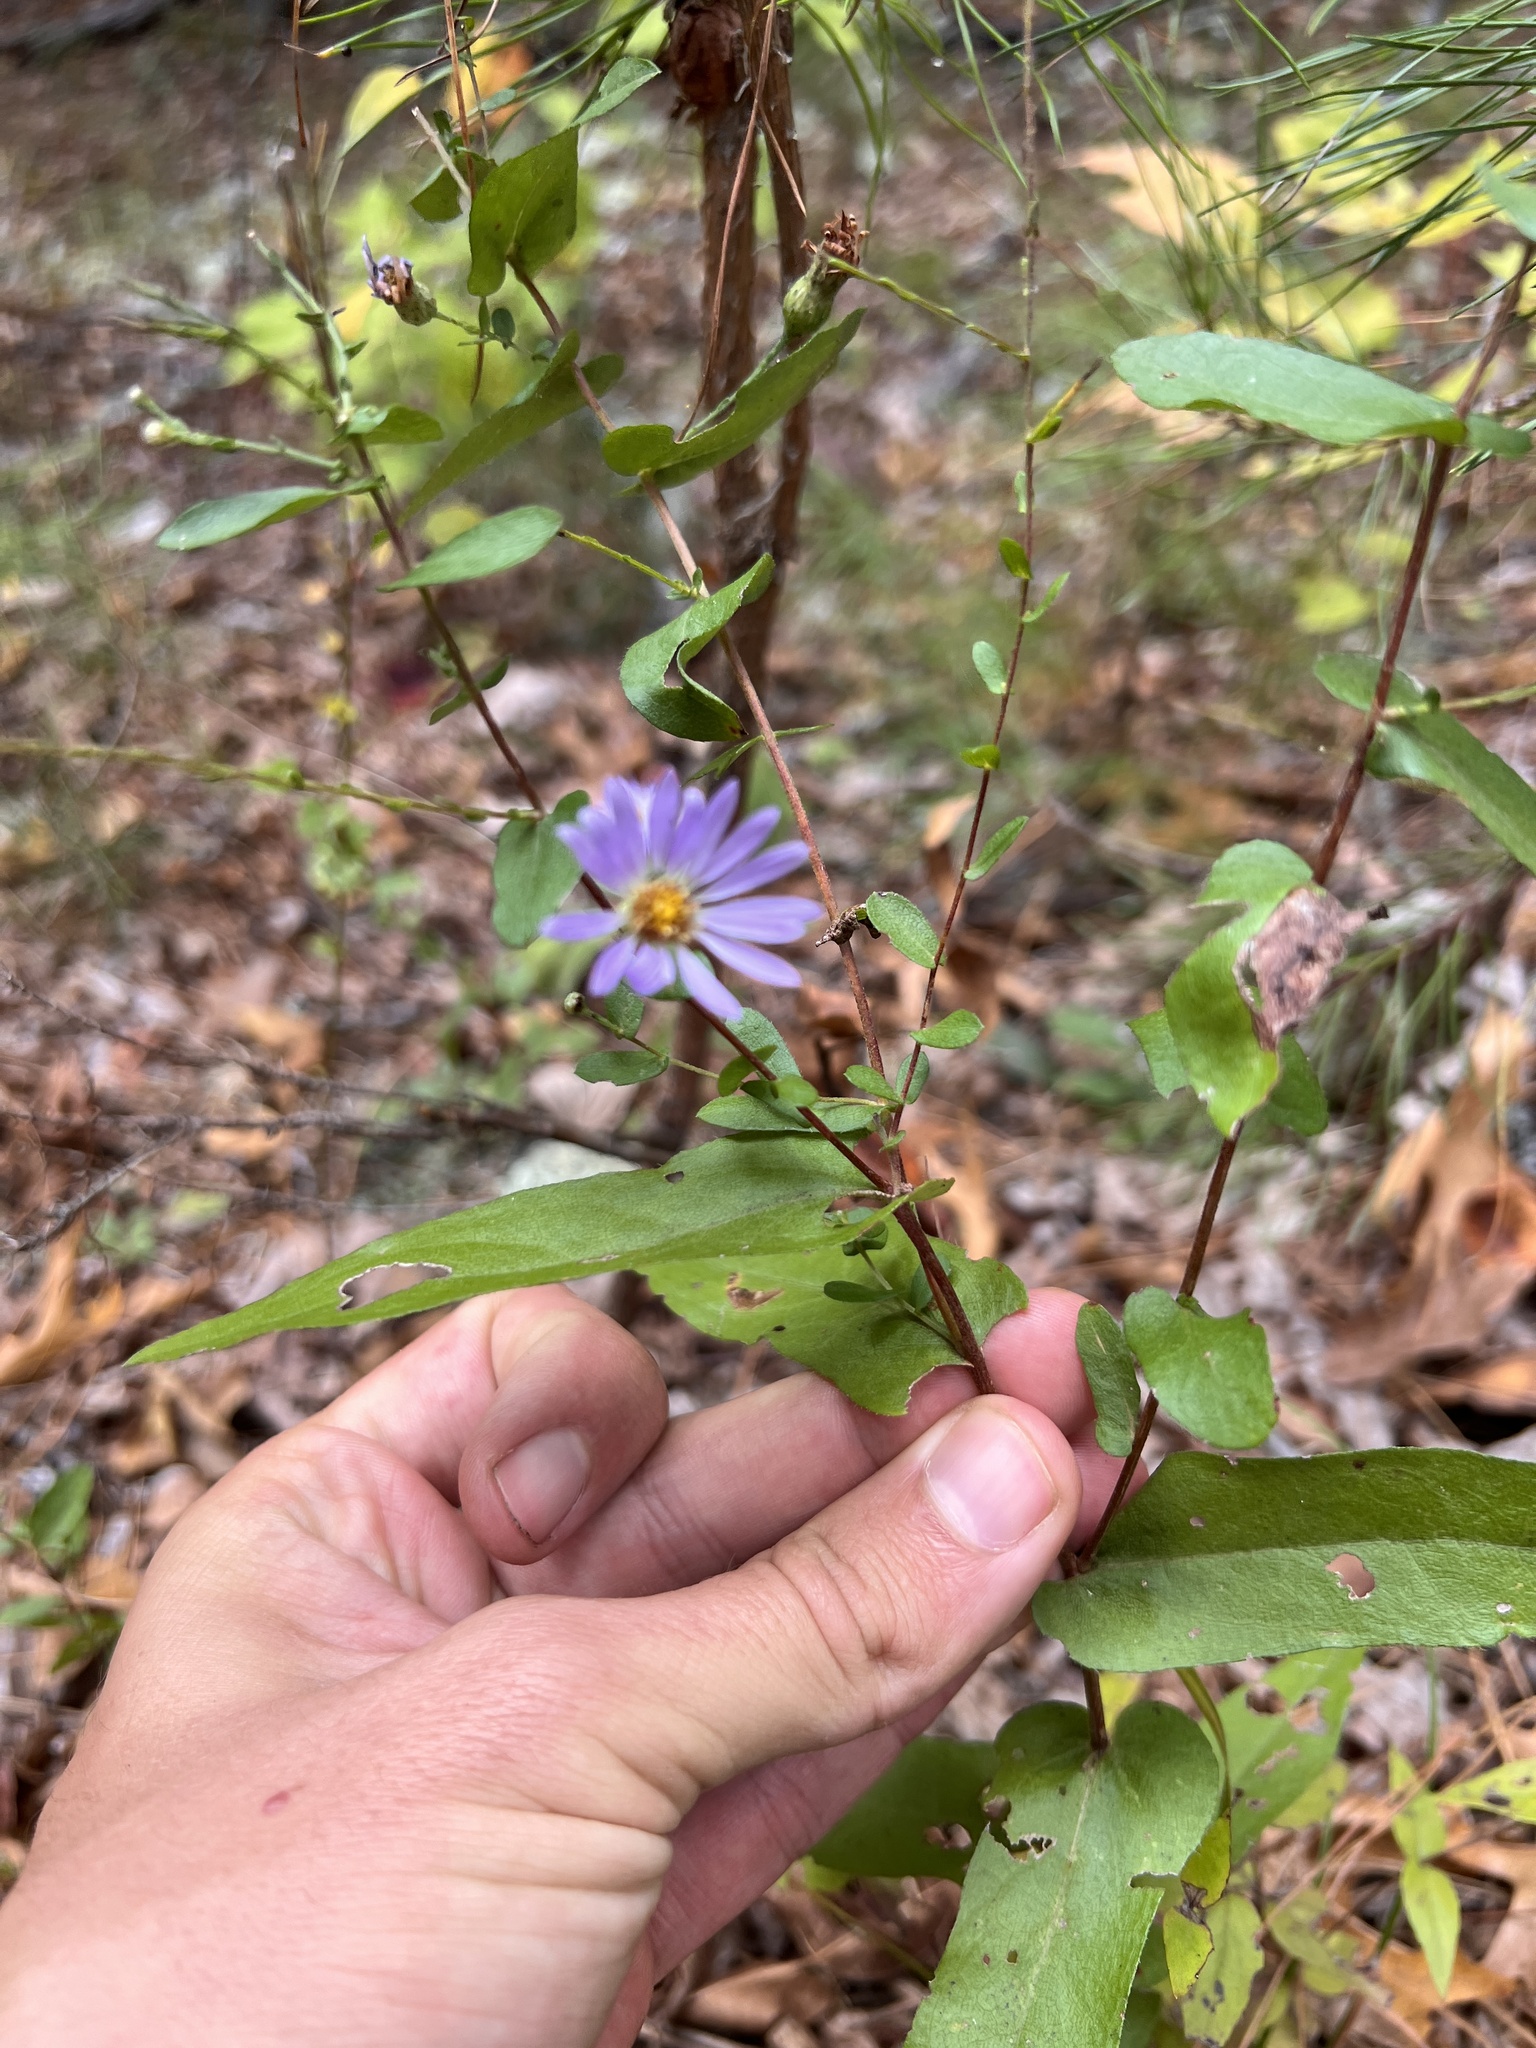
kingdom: Plantae
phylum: Tracheophyta
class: Magnoliopsida
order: Asterales
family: Asteraceae
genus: Symphyotrichum
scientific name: Symphyotrichum patens
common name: Late purple aster
